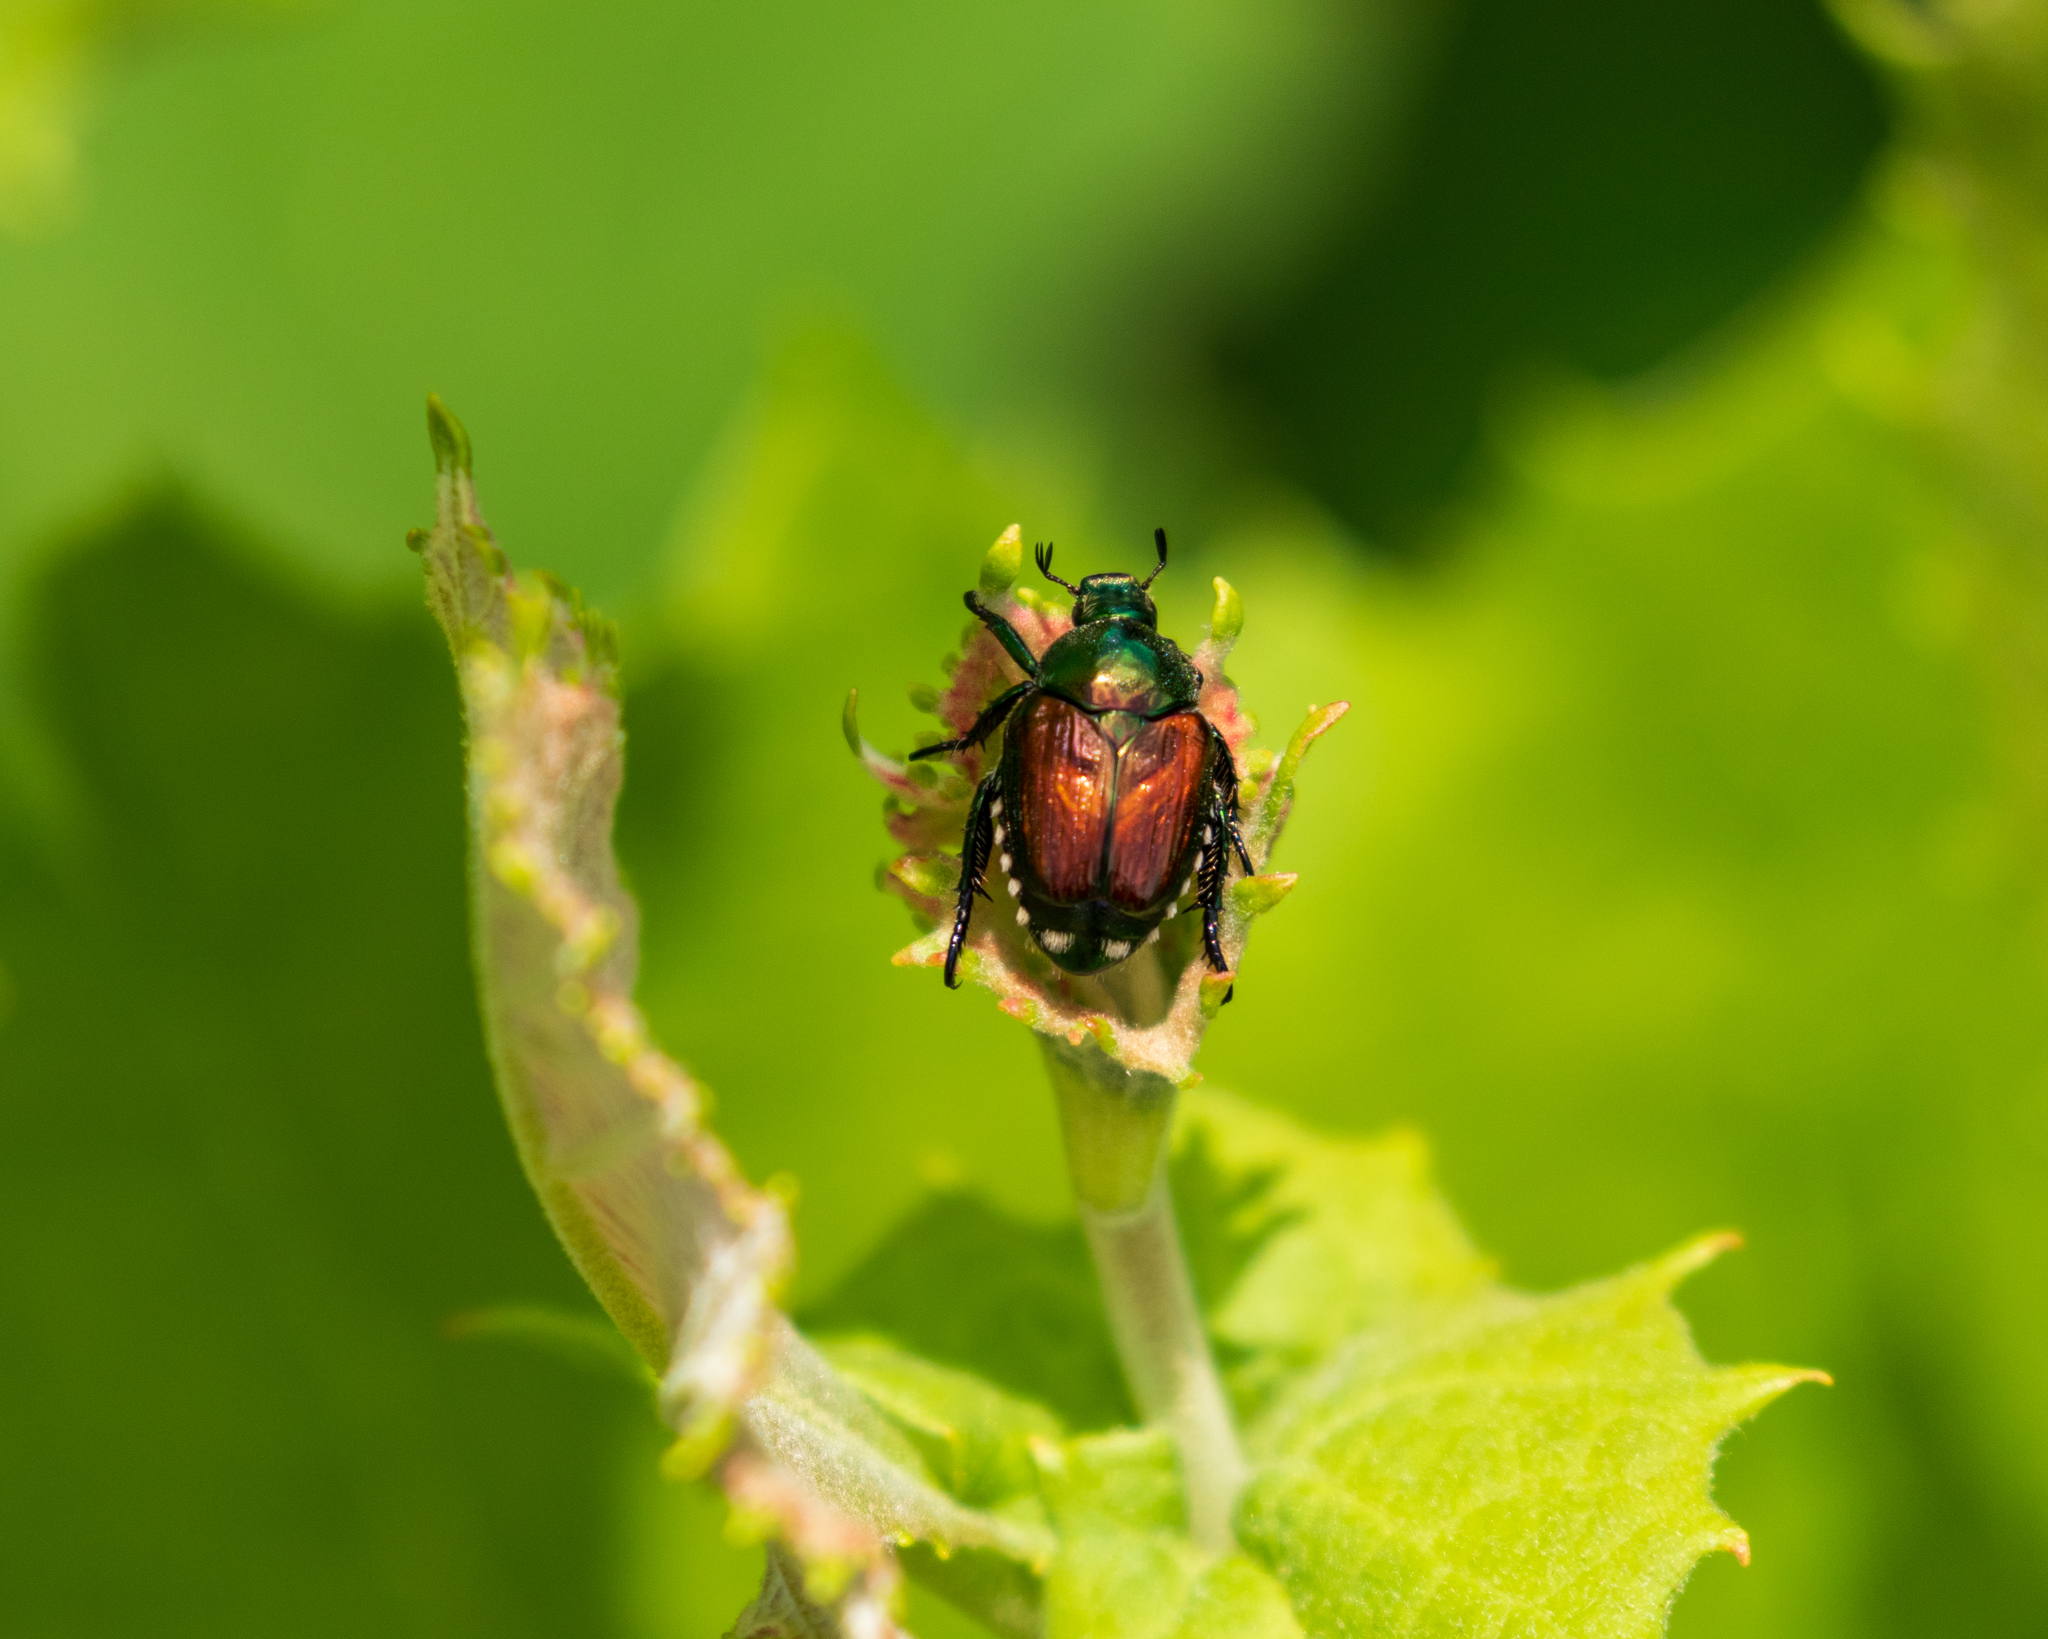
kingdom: Animalia
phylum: Arthropoda
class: Insecta
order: Coleoptera
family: Scarabaeidae
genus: Popillia
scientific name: Popillia japonica
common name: Japanese beetle
